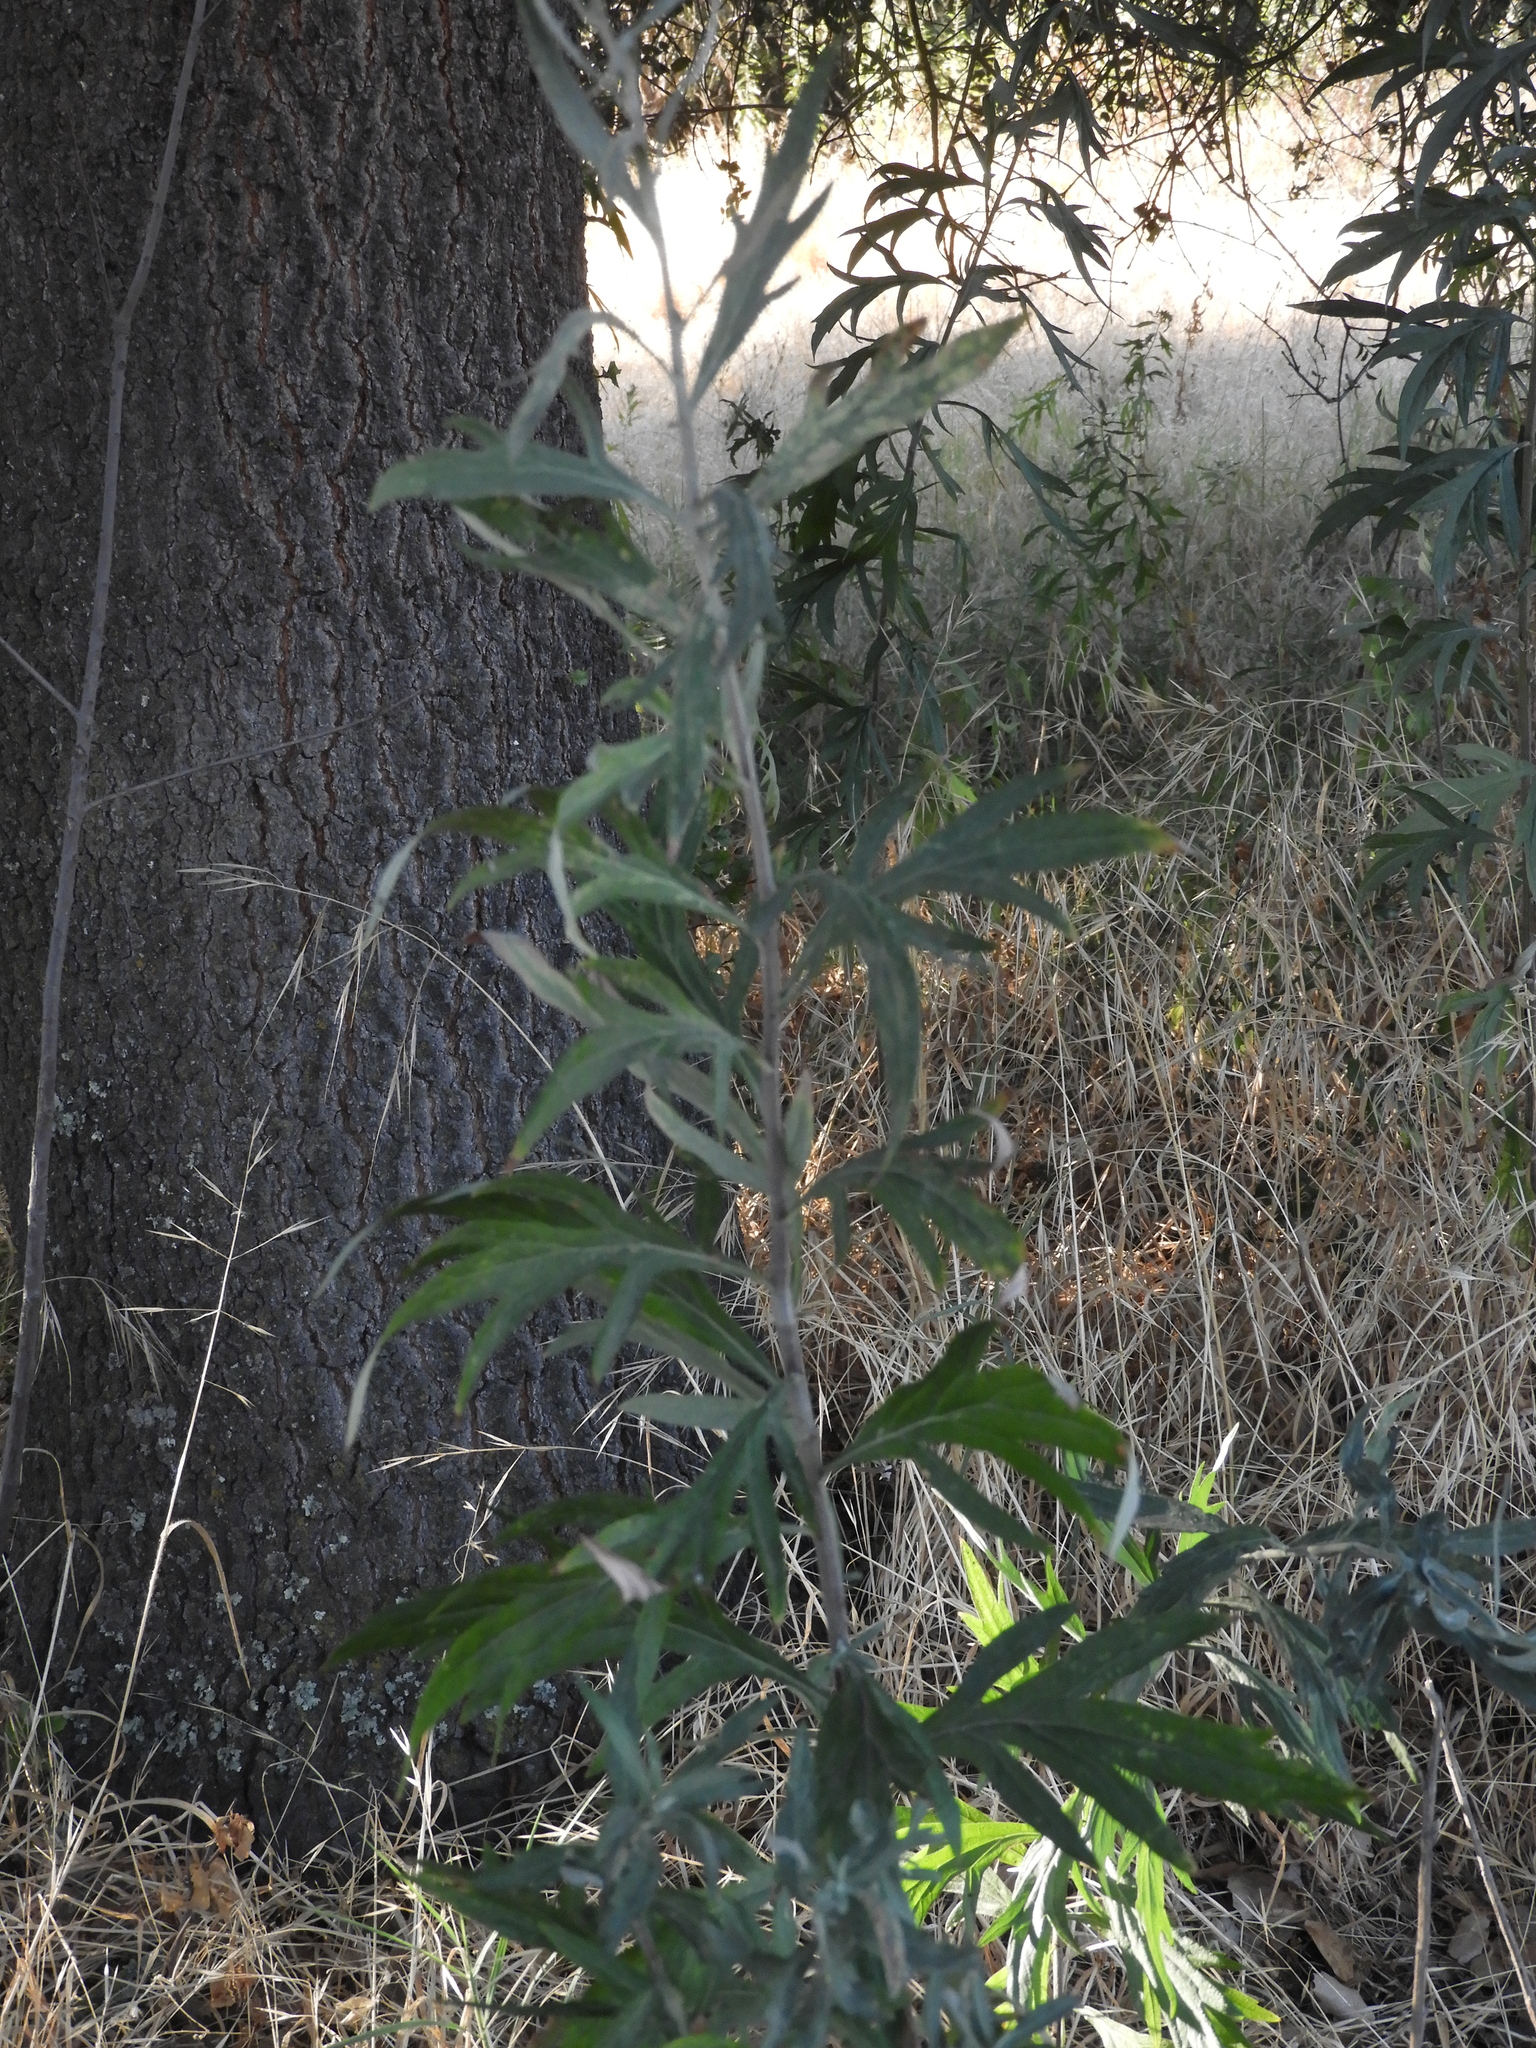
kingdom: Plantae
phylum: Tracheophyta
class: Magnoliopsida
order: Asterales
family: Asteraceae
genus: Artemisia
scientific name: Artemisia douglasiana
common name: Northwest mugwort
